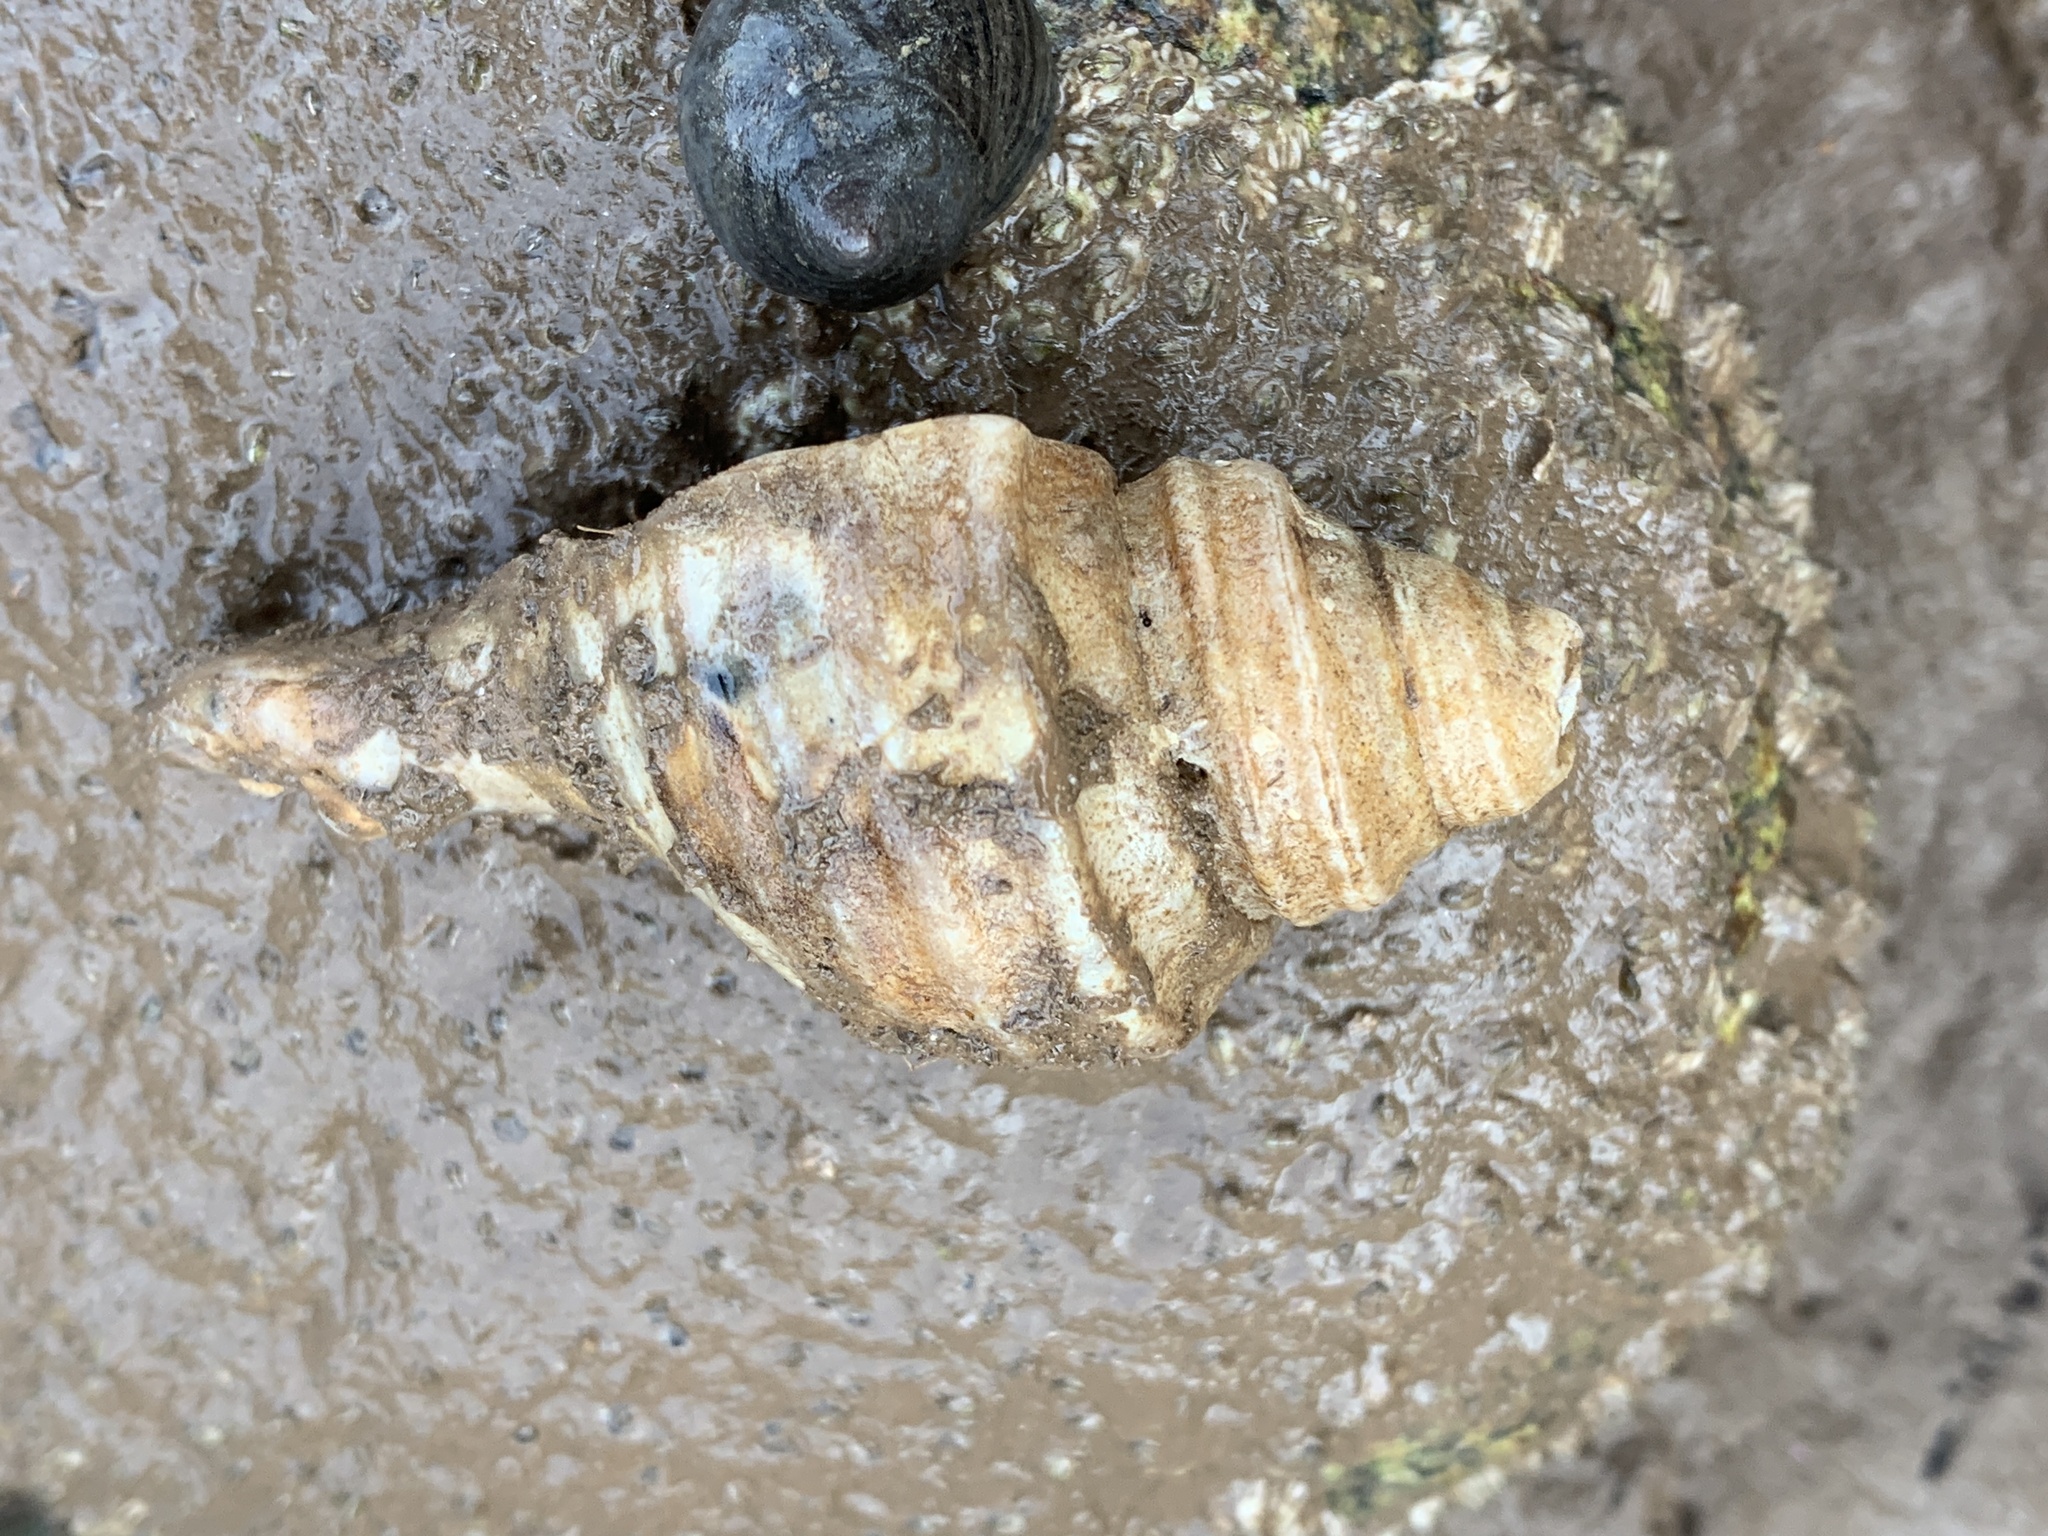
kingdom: Animalia
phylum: Mollusca
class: Gastropoda
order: Neogastropoda
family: Buccinidae
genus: Neptunea
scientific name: Neptunea decemcostata
